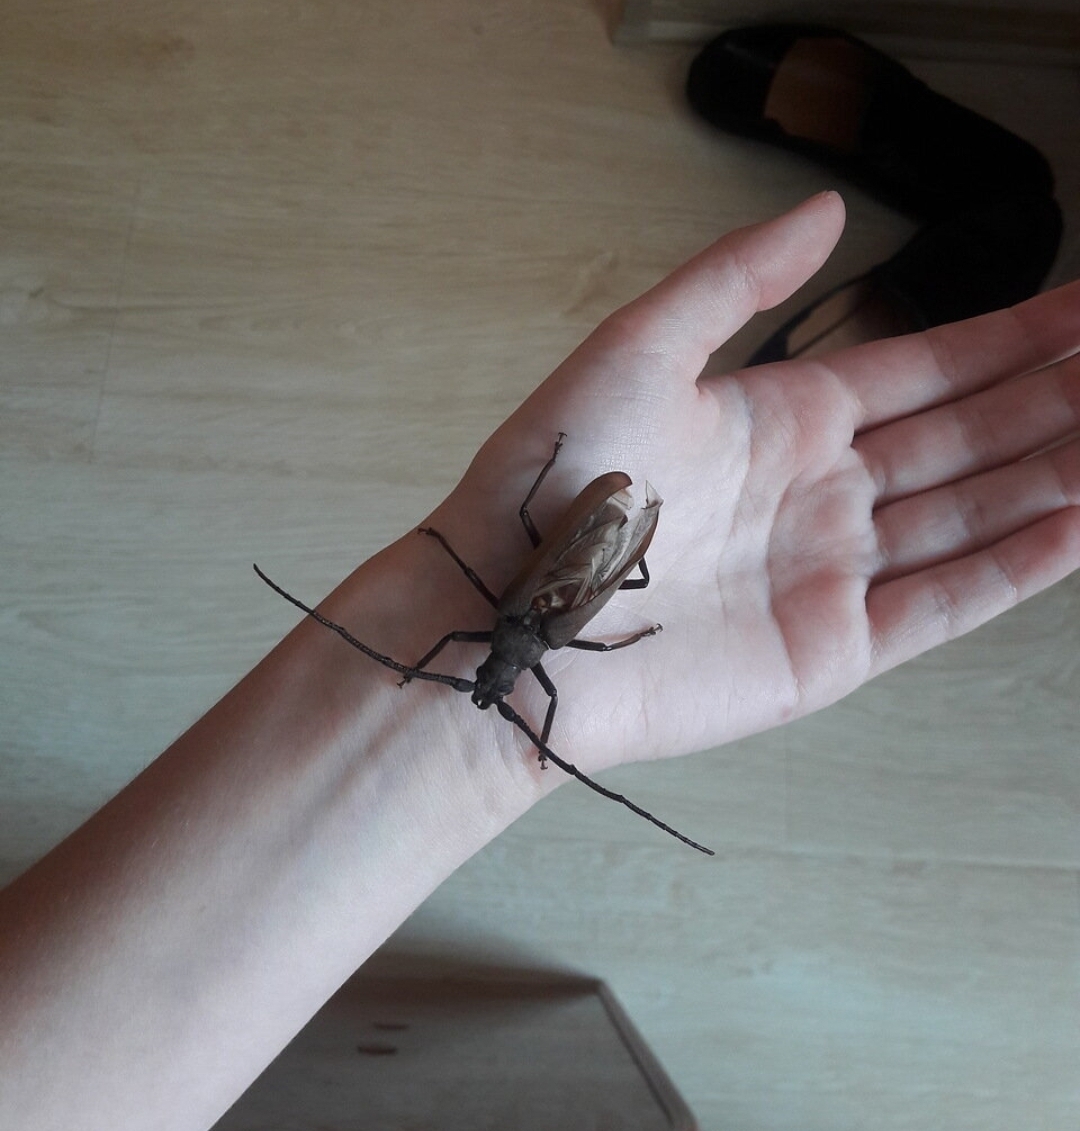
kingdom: Animalia
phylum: Arthropoda
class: Insecta
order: Coleoptera
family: Cerambycidae
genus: Aegosoma
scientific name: Aegosoma scabricorne
